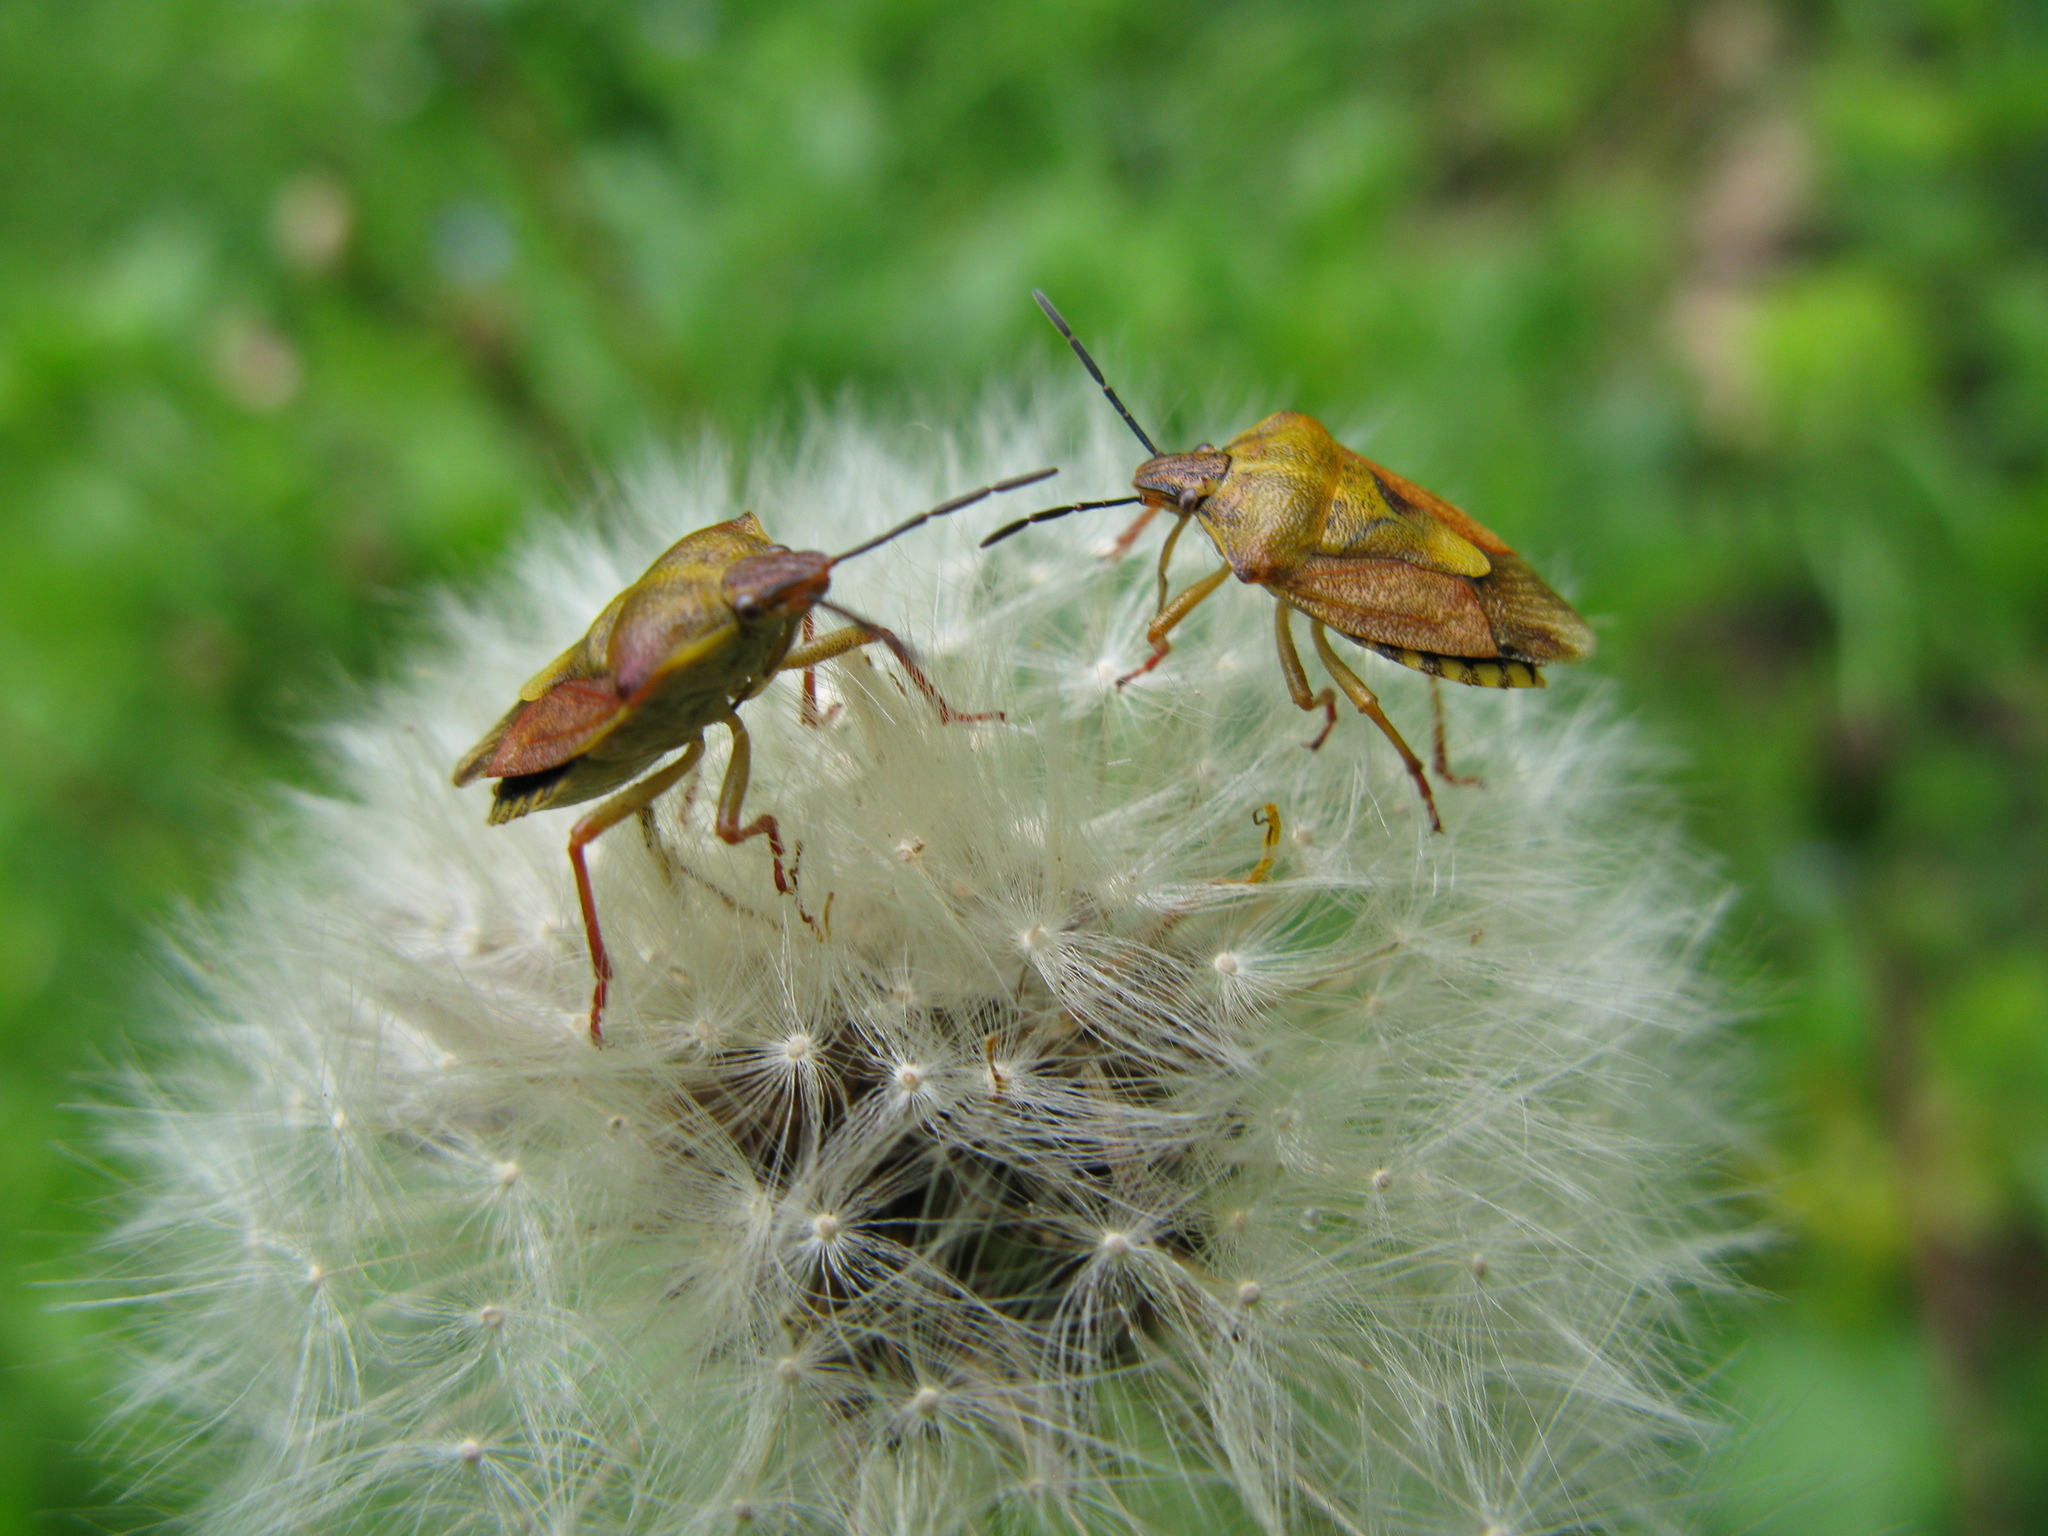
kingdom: Animalia
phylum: Arthropoda
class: Insecta
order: Hemiptera
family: Pentatomidae
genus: Carpocoris
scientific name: Carpocoris purpureipennis
